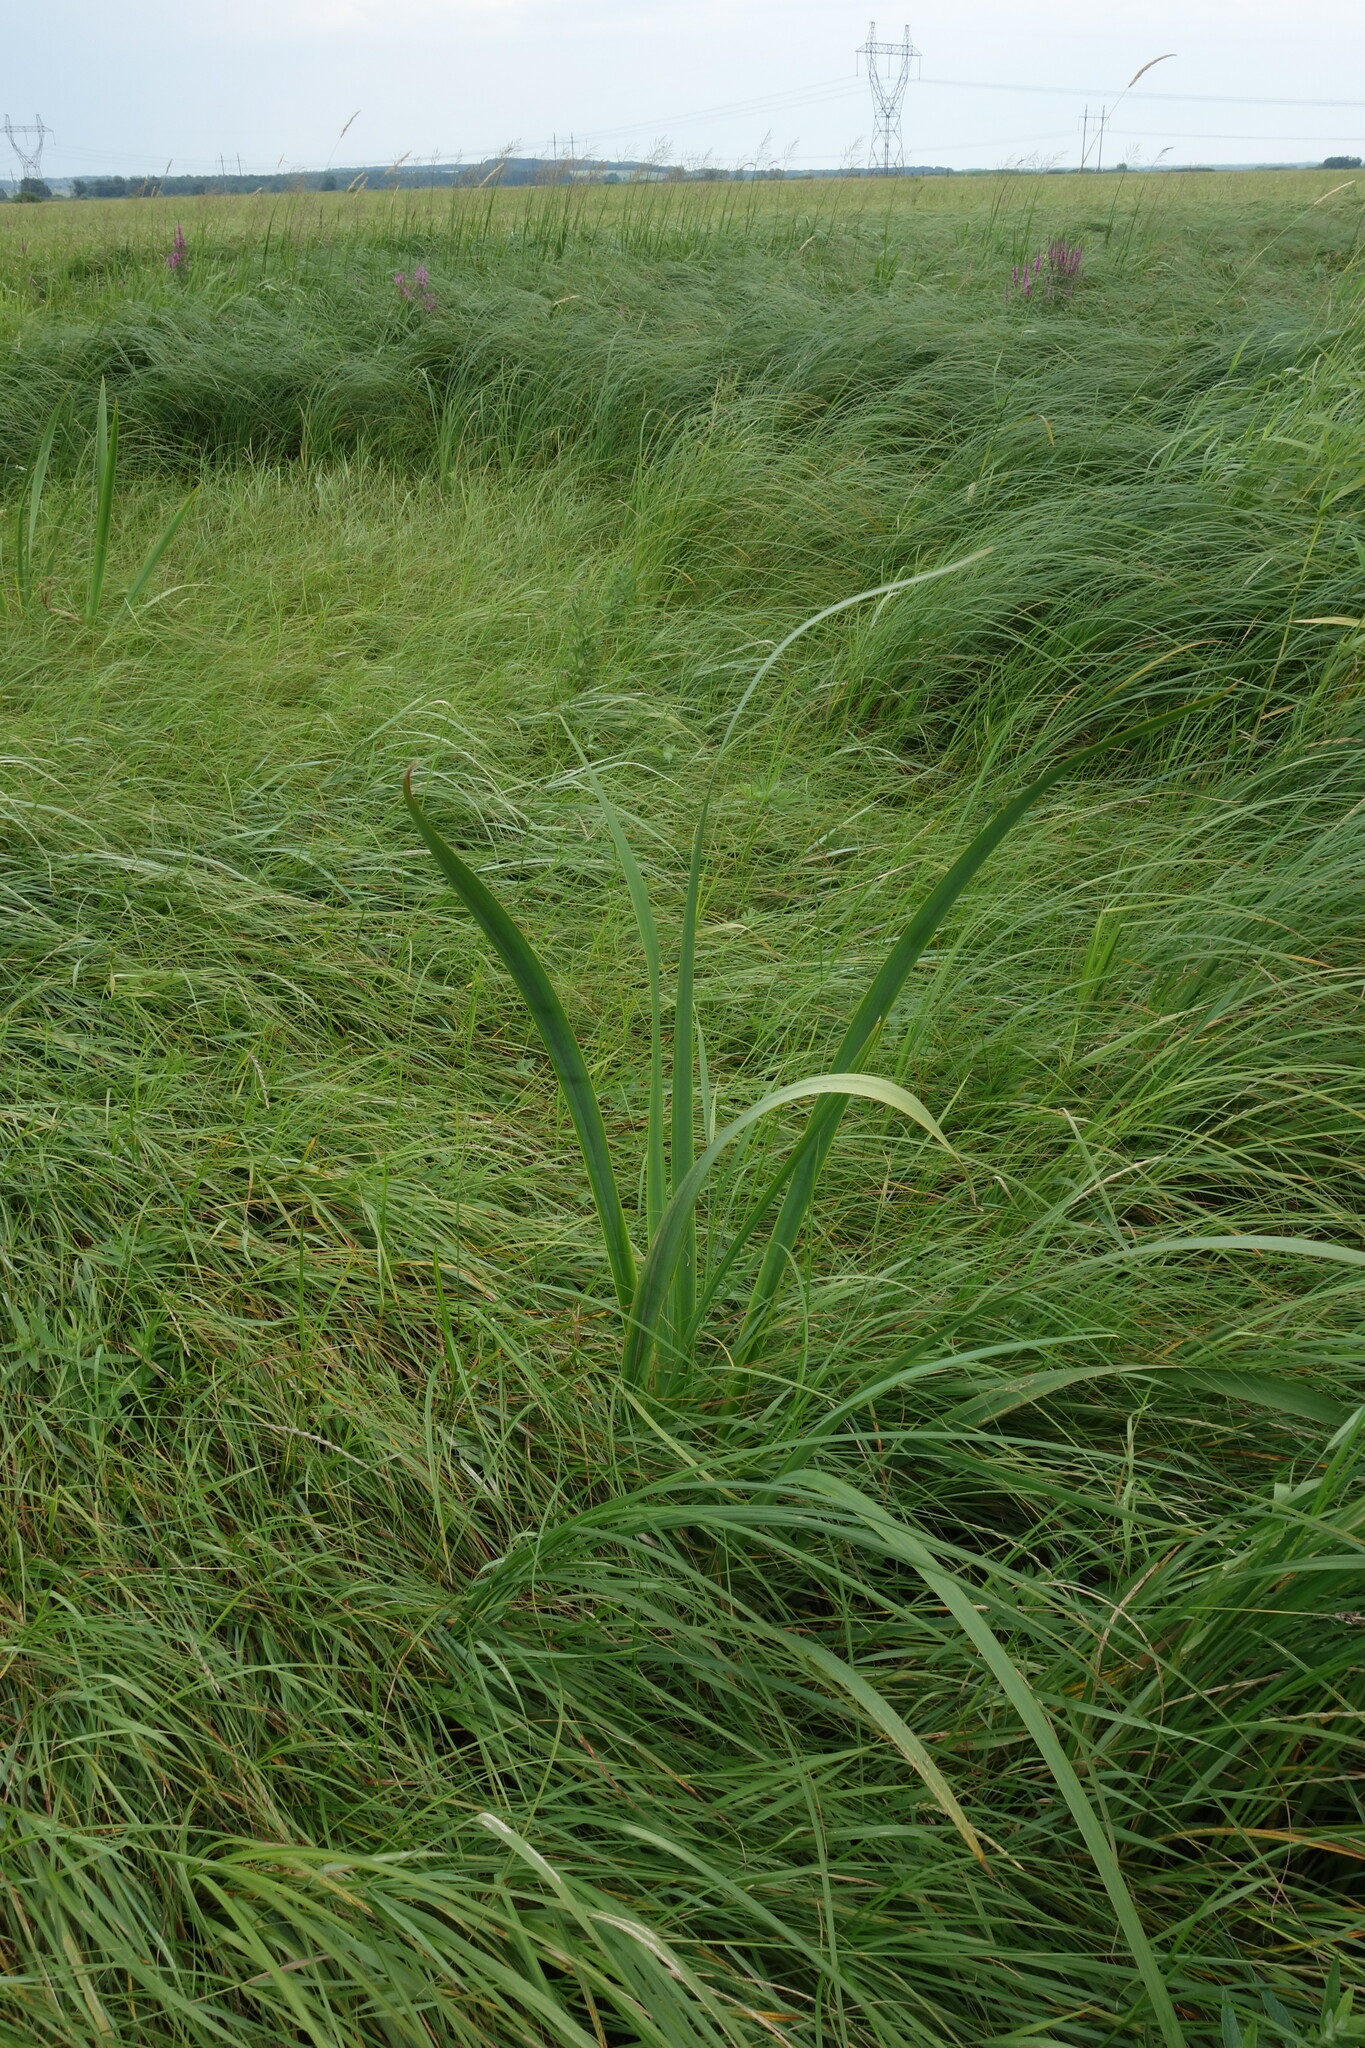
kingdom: Plantae
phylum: Tracheophyta
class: Liliopsida
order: Asparagales
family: Iridaceae
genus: Iris
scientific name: Iris pseudacorus
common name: Yellow flag
